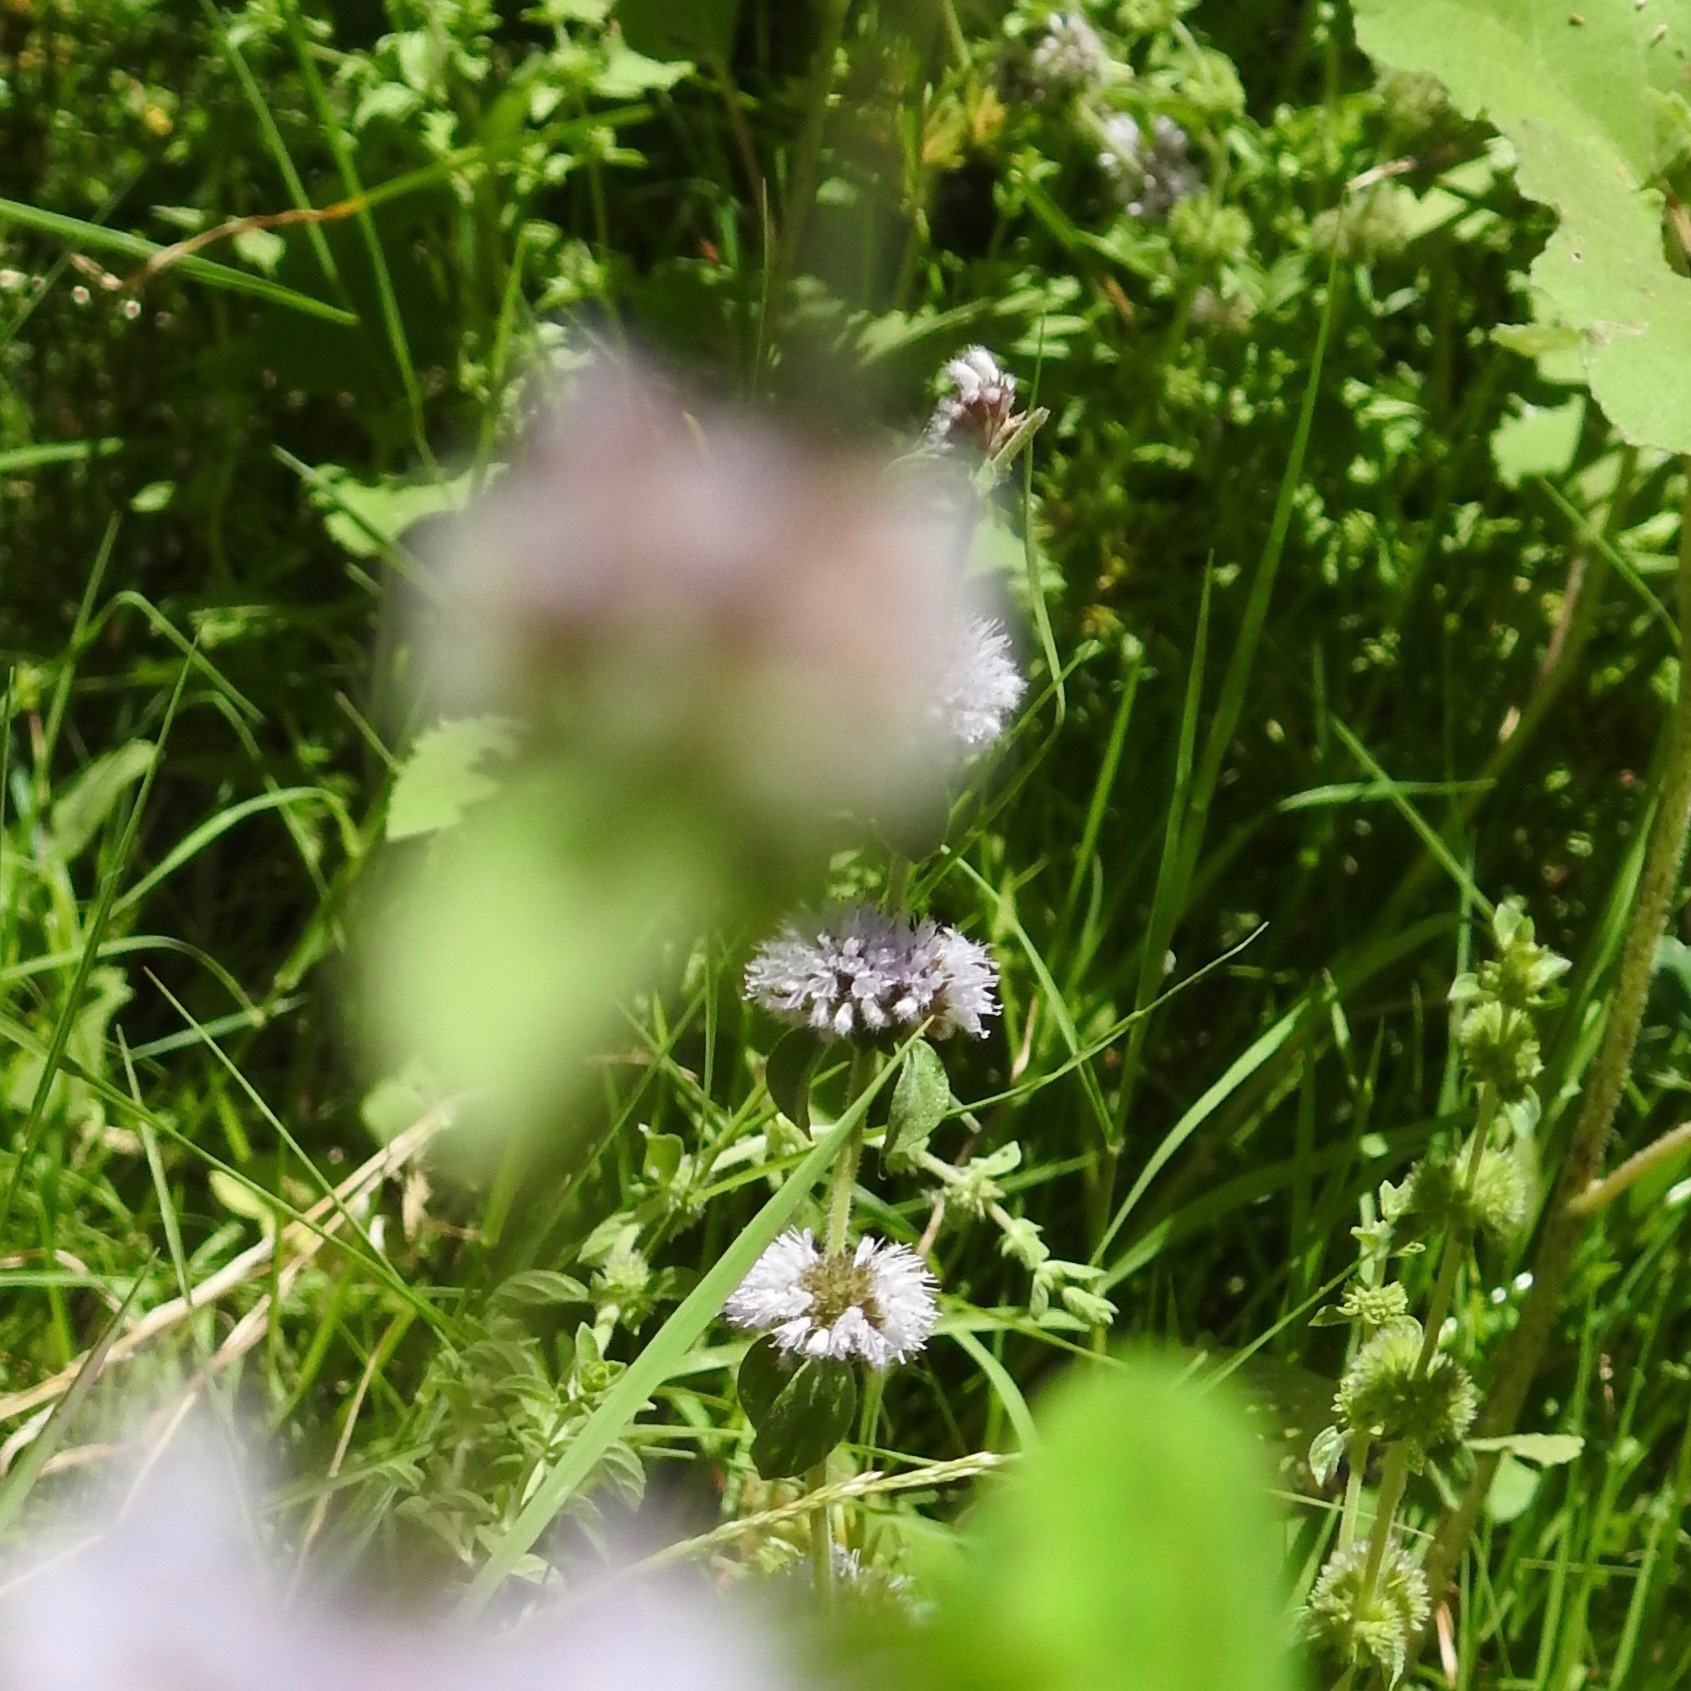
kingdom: Plantae
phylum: Tracheophyta
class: Magnoliopsida
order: Lamiales
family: Lamiaceae
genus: Mentha
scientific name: Mentha pulegium
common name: Pennyroyal
